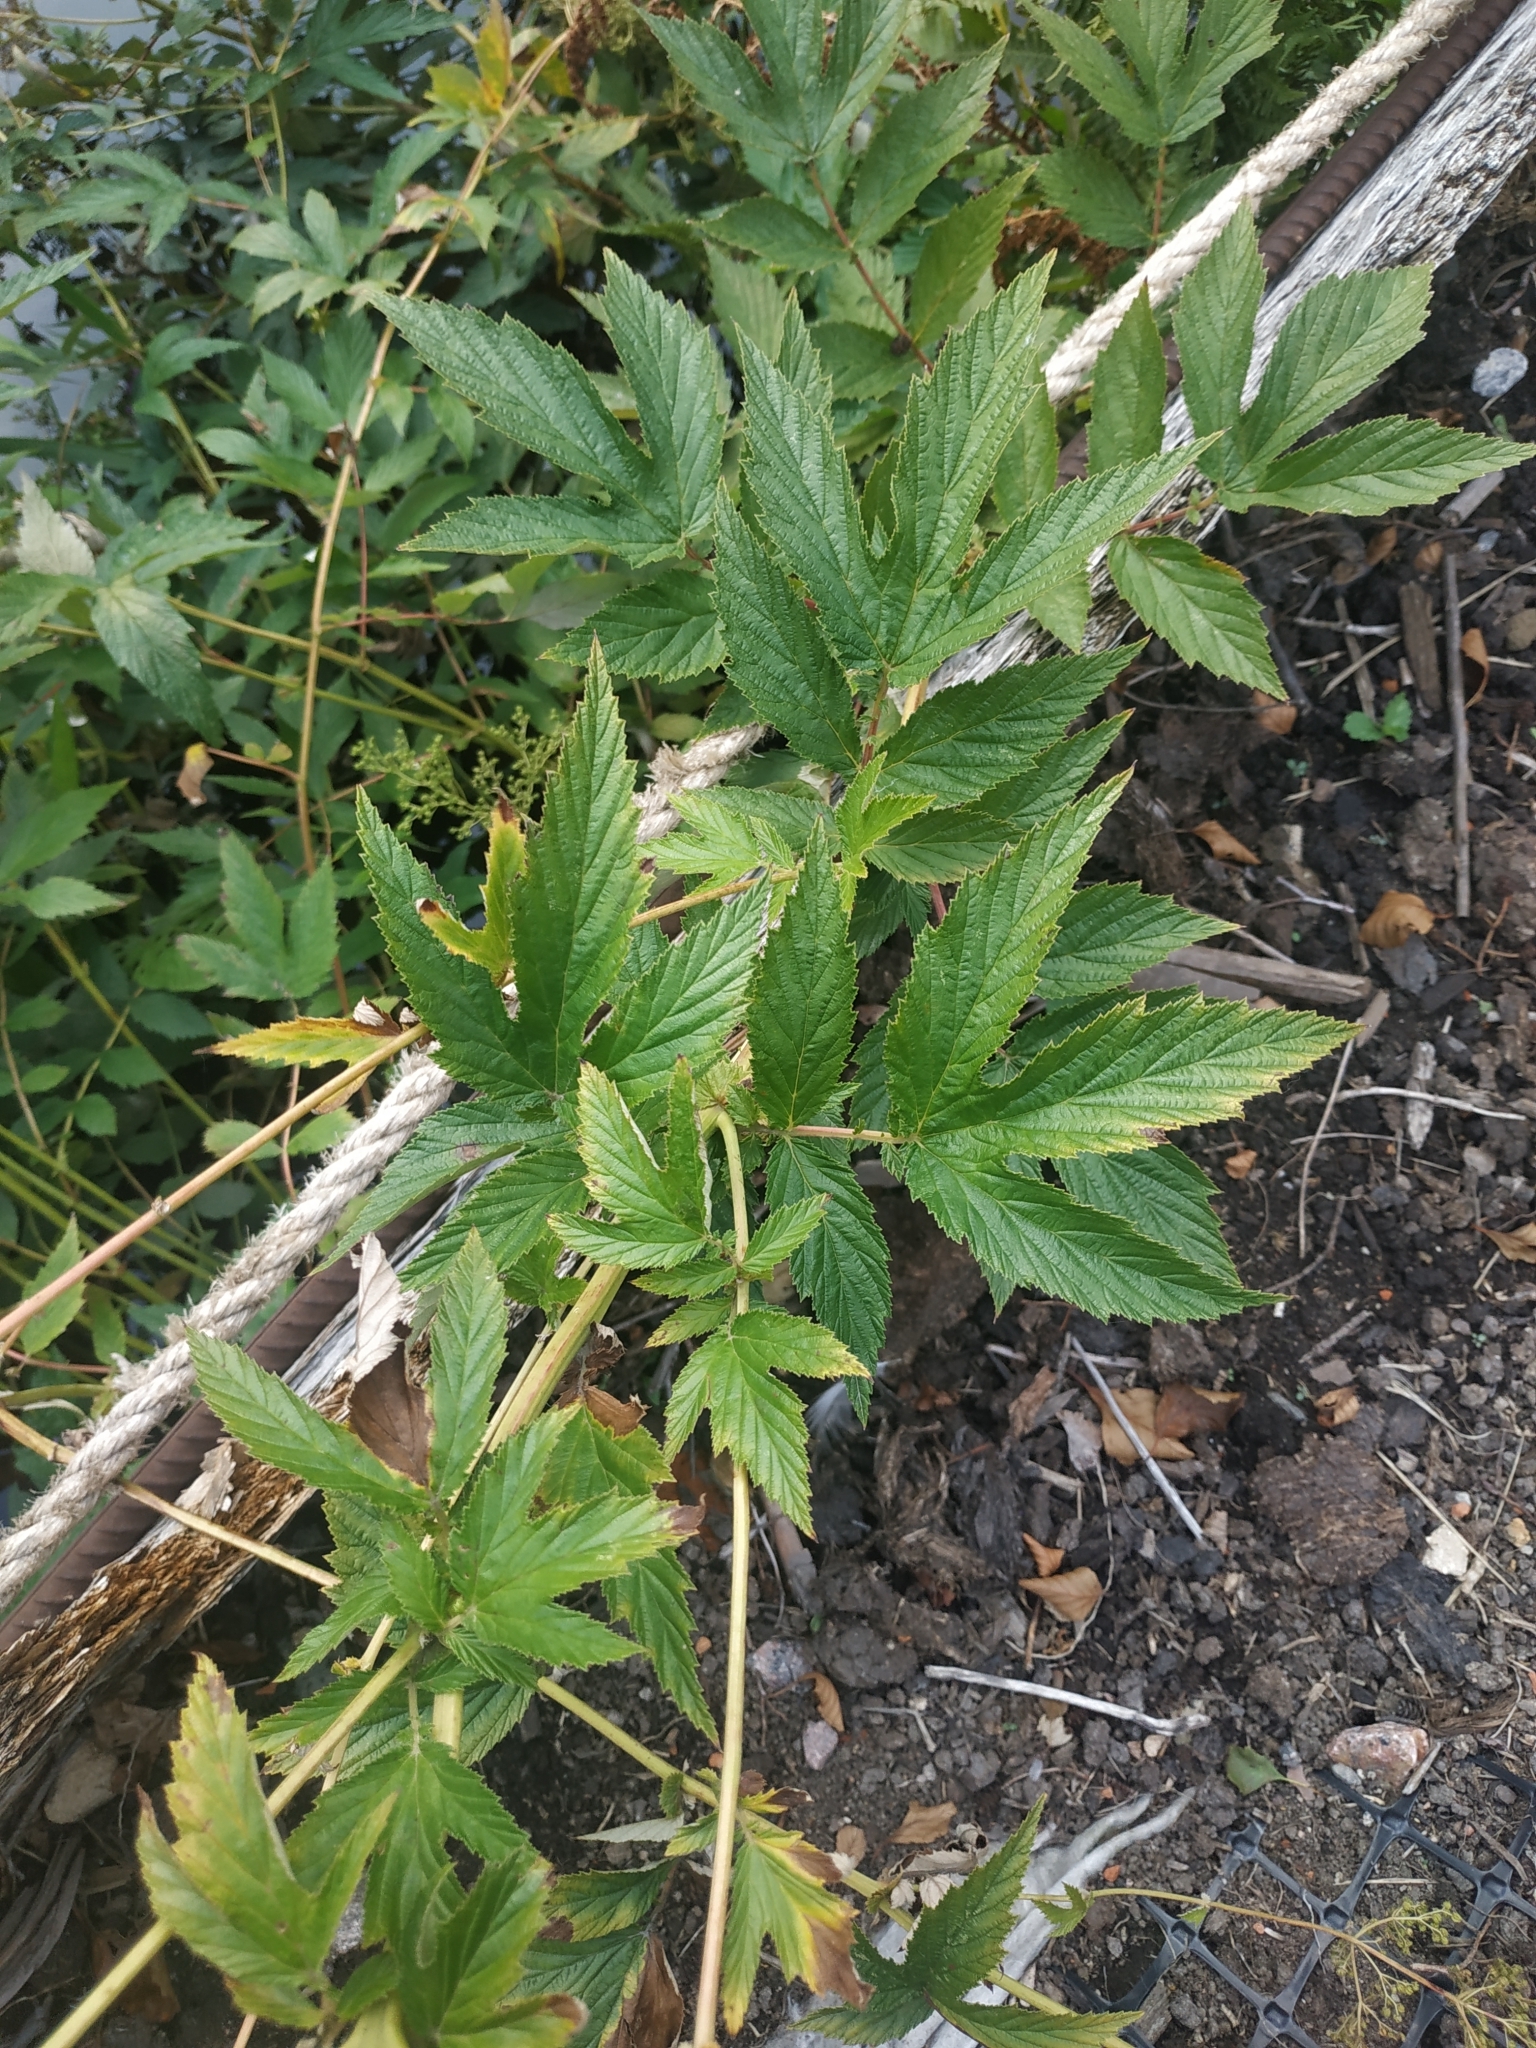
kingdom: Plantae
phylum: Tracheophyta
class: Magnoliopsida
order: Rosales
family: Rosaceae
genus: Filipendula
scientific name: Filipendula ulmaria
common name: Meadowsweet
